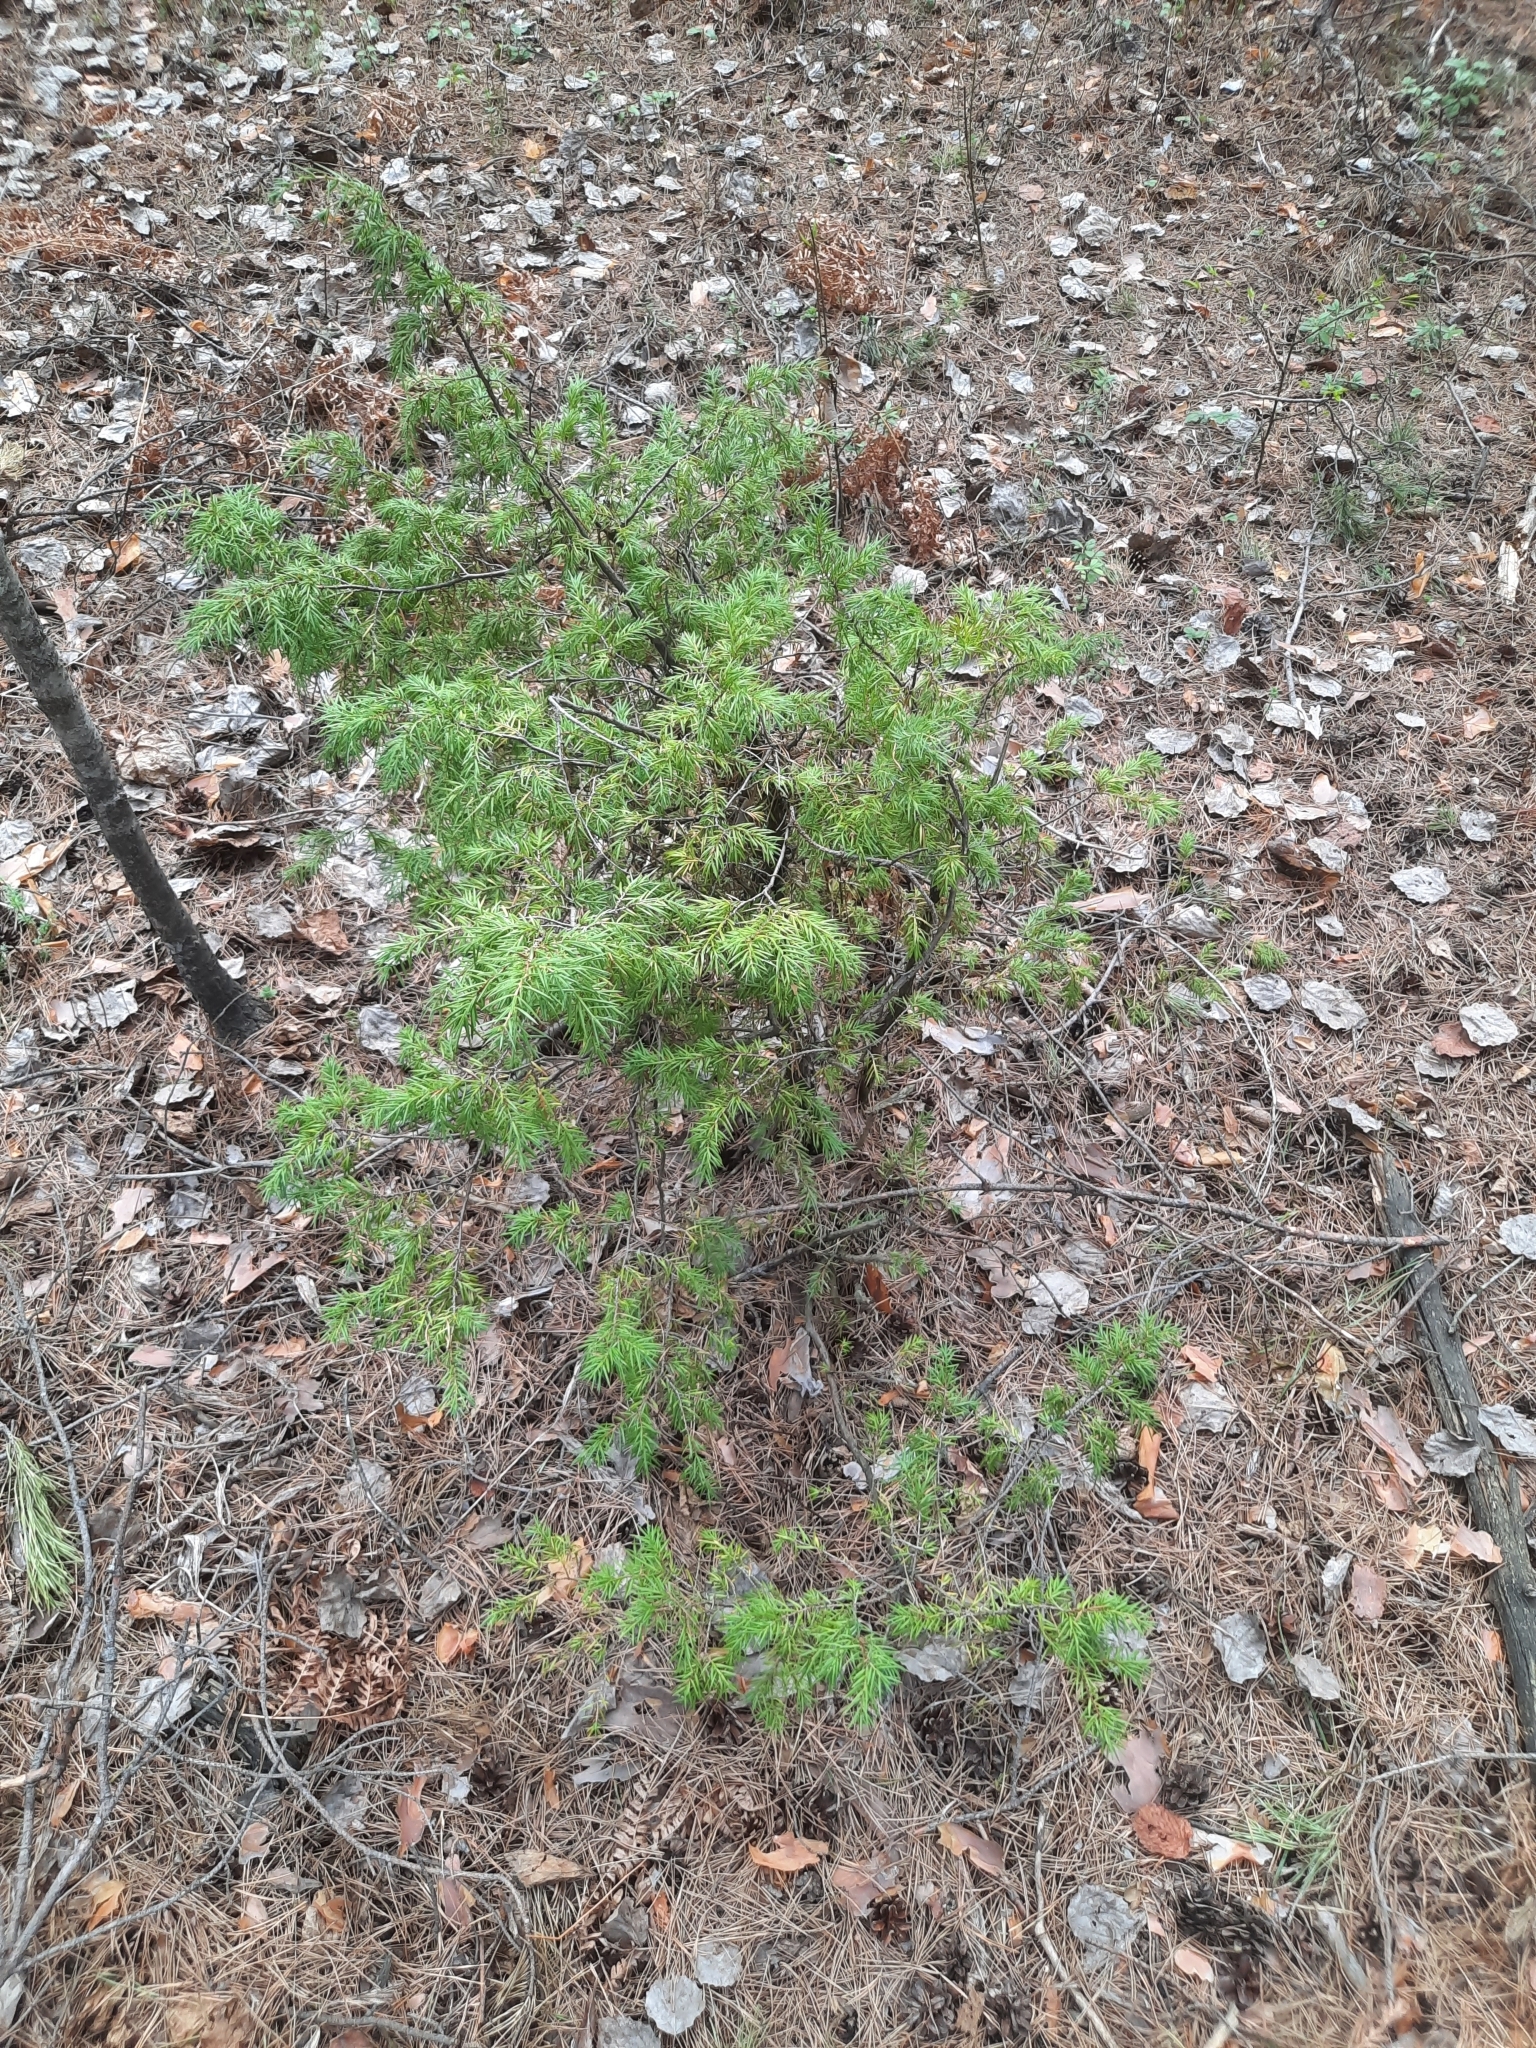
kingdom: Plantae
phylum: Tracheophyta
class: Pinopsida
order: Pinales
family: Cupressaceae
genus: Juniperus
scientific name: Juniperus communis
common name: Common juniper
